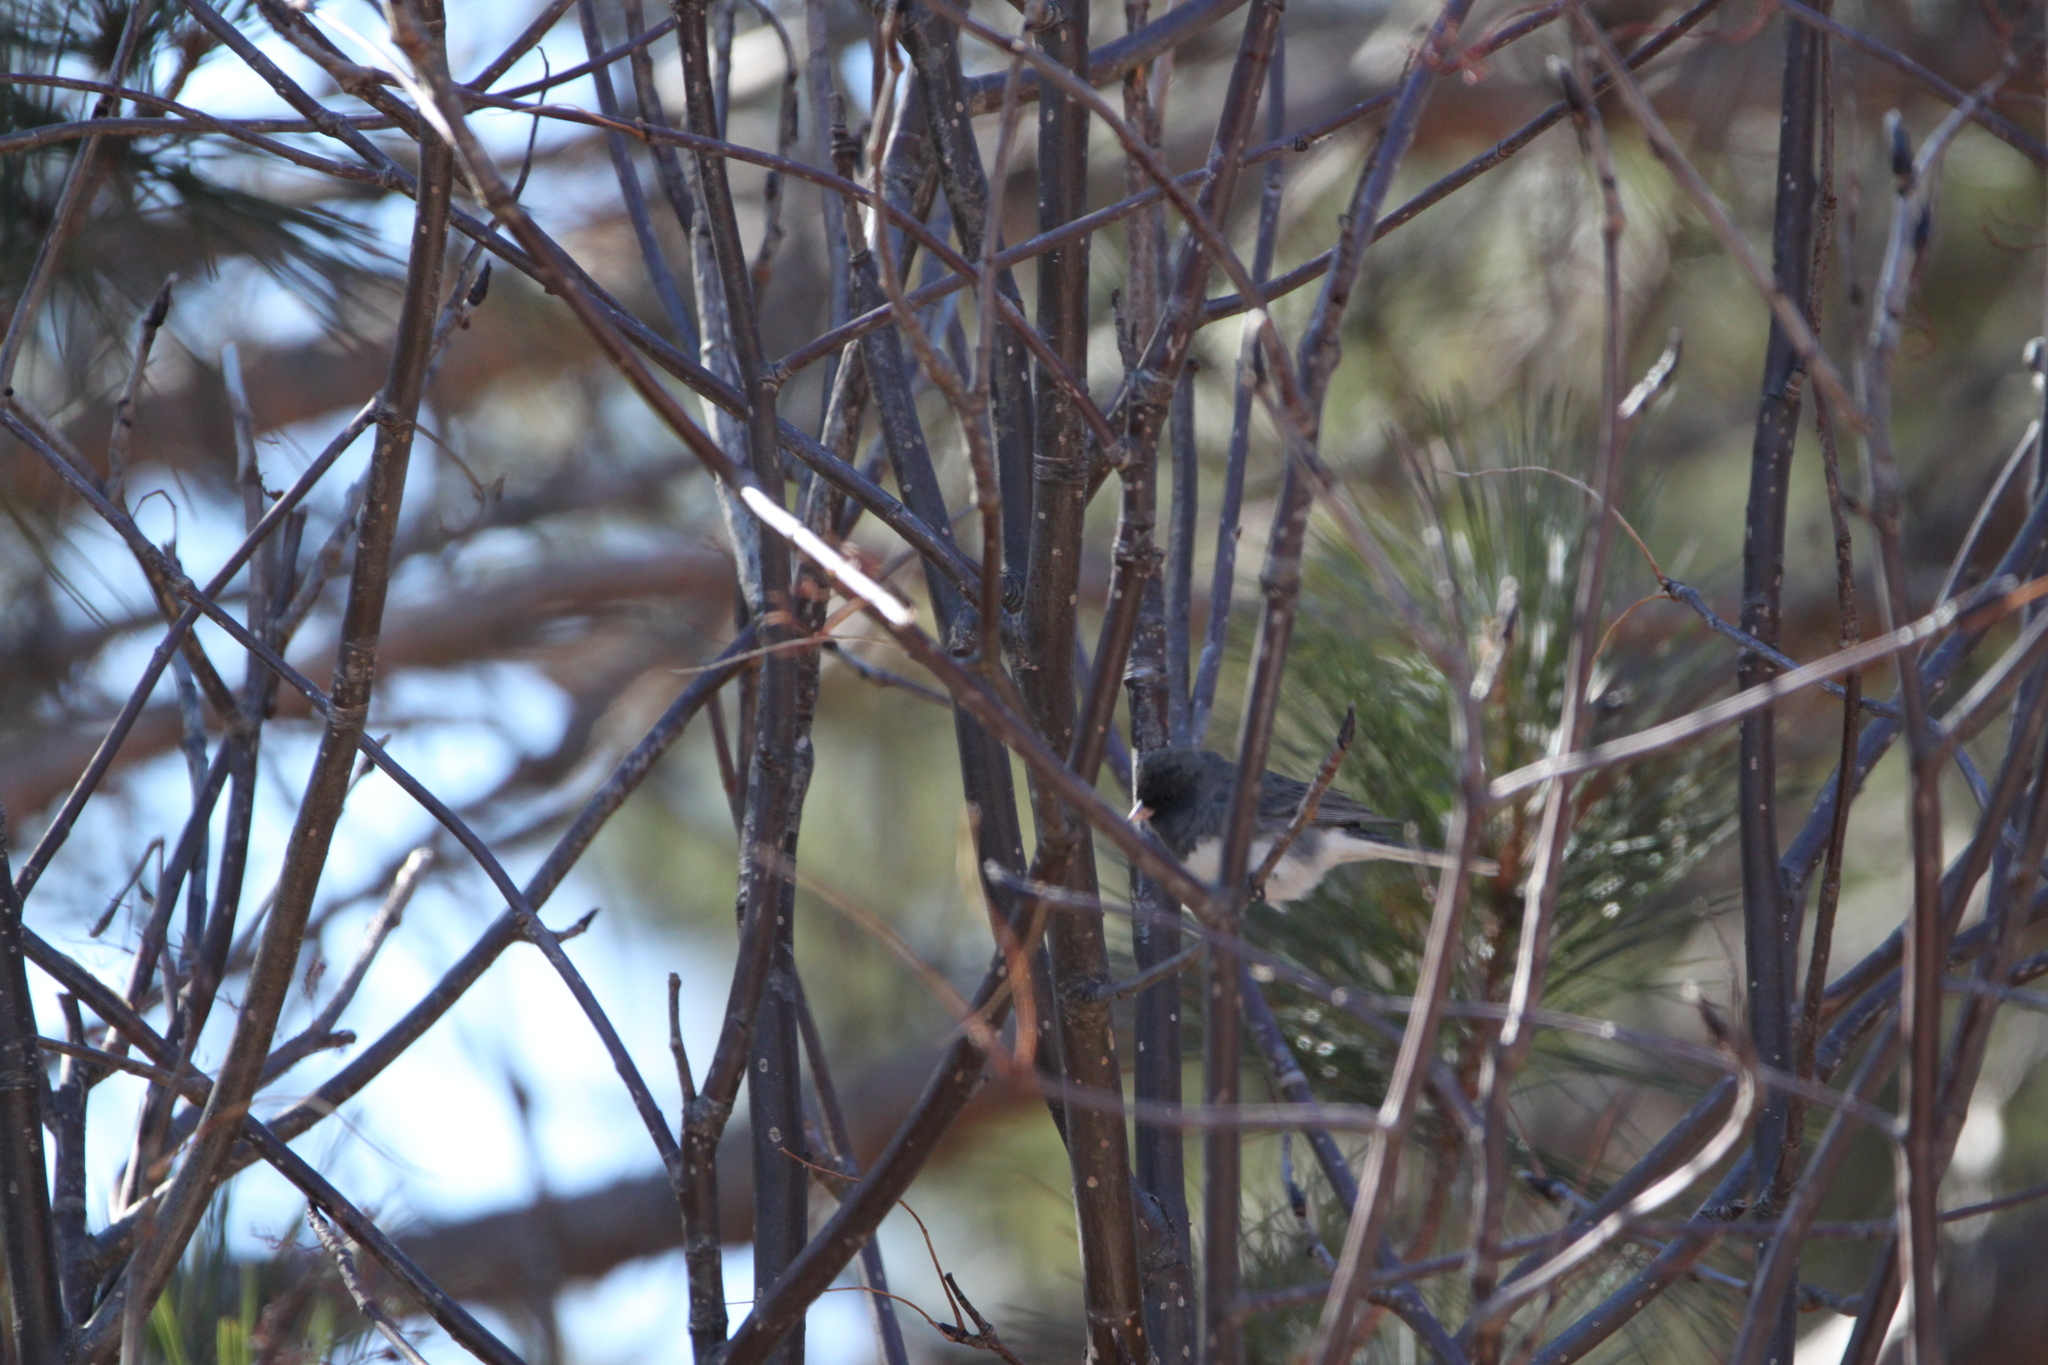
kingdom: Animalia
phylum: Chordata
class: Aves
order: Passeriformes
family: Passerellidae
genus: Junco
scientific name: Junco hyemalis
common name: Dark-eyed junco
